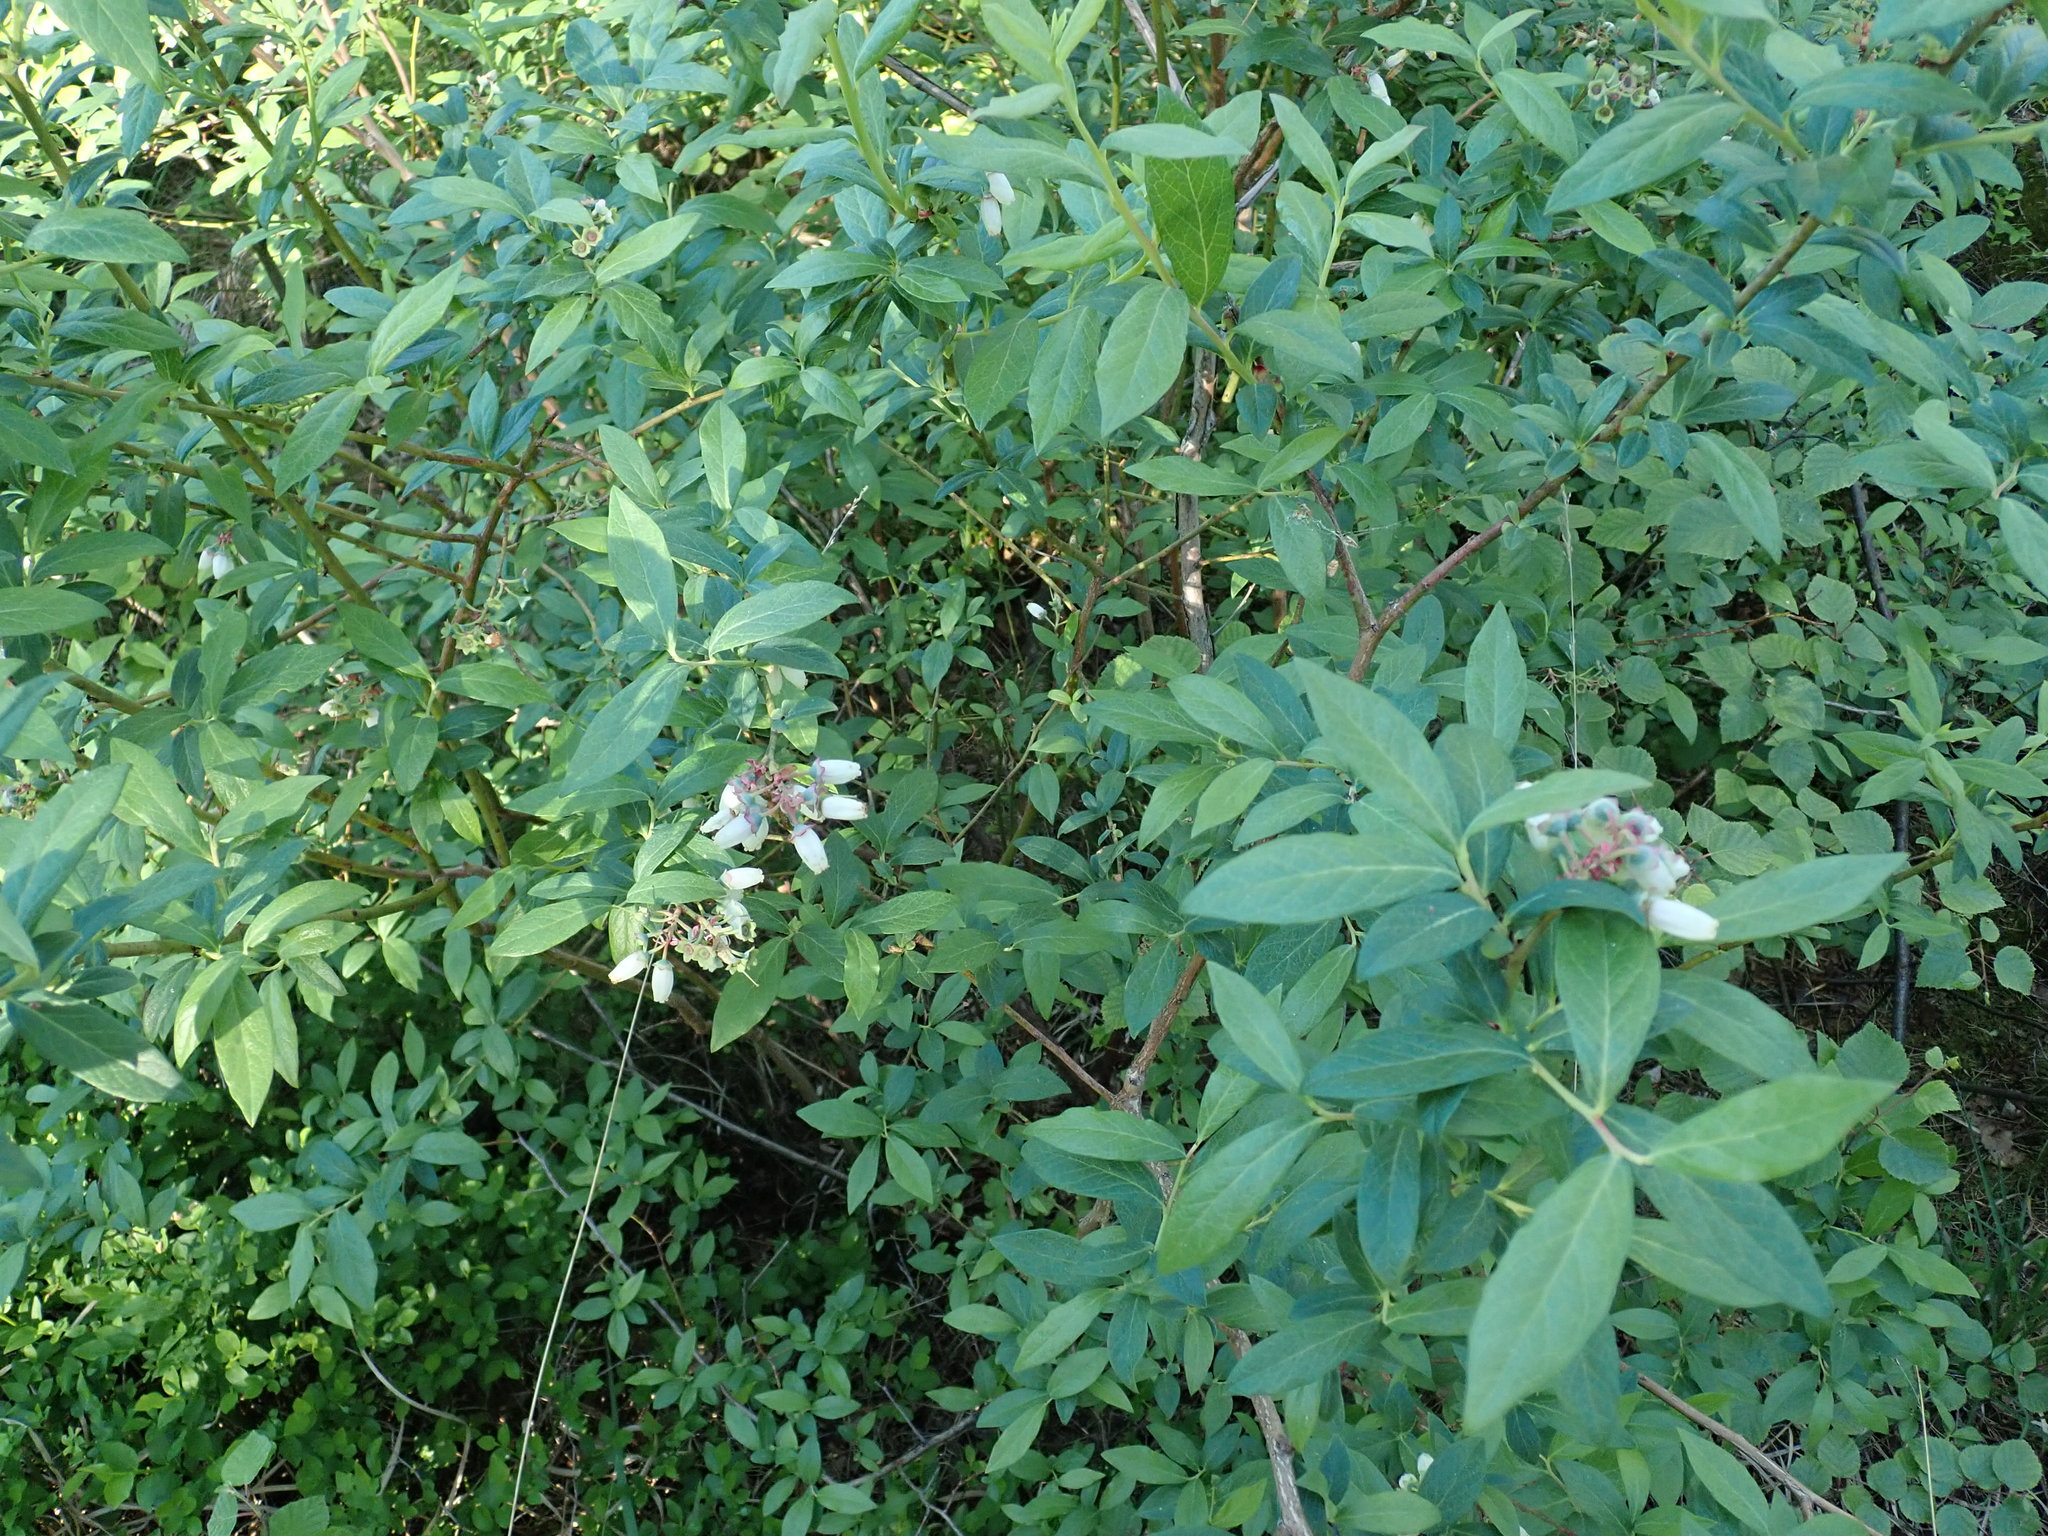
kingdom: Plantae
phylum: Tracheophyta
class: Magnoliopsida
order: Ericales
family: Ericaceae
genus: Vaccinium
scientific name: Vaccinium corymbosum
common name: Blueberry
